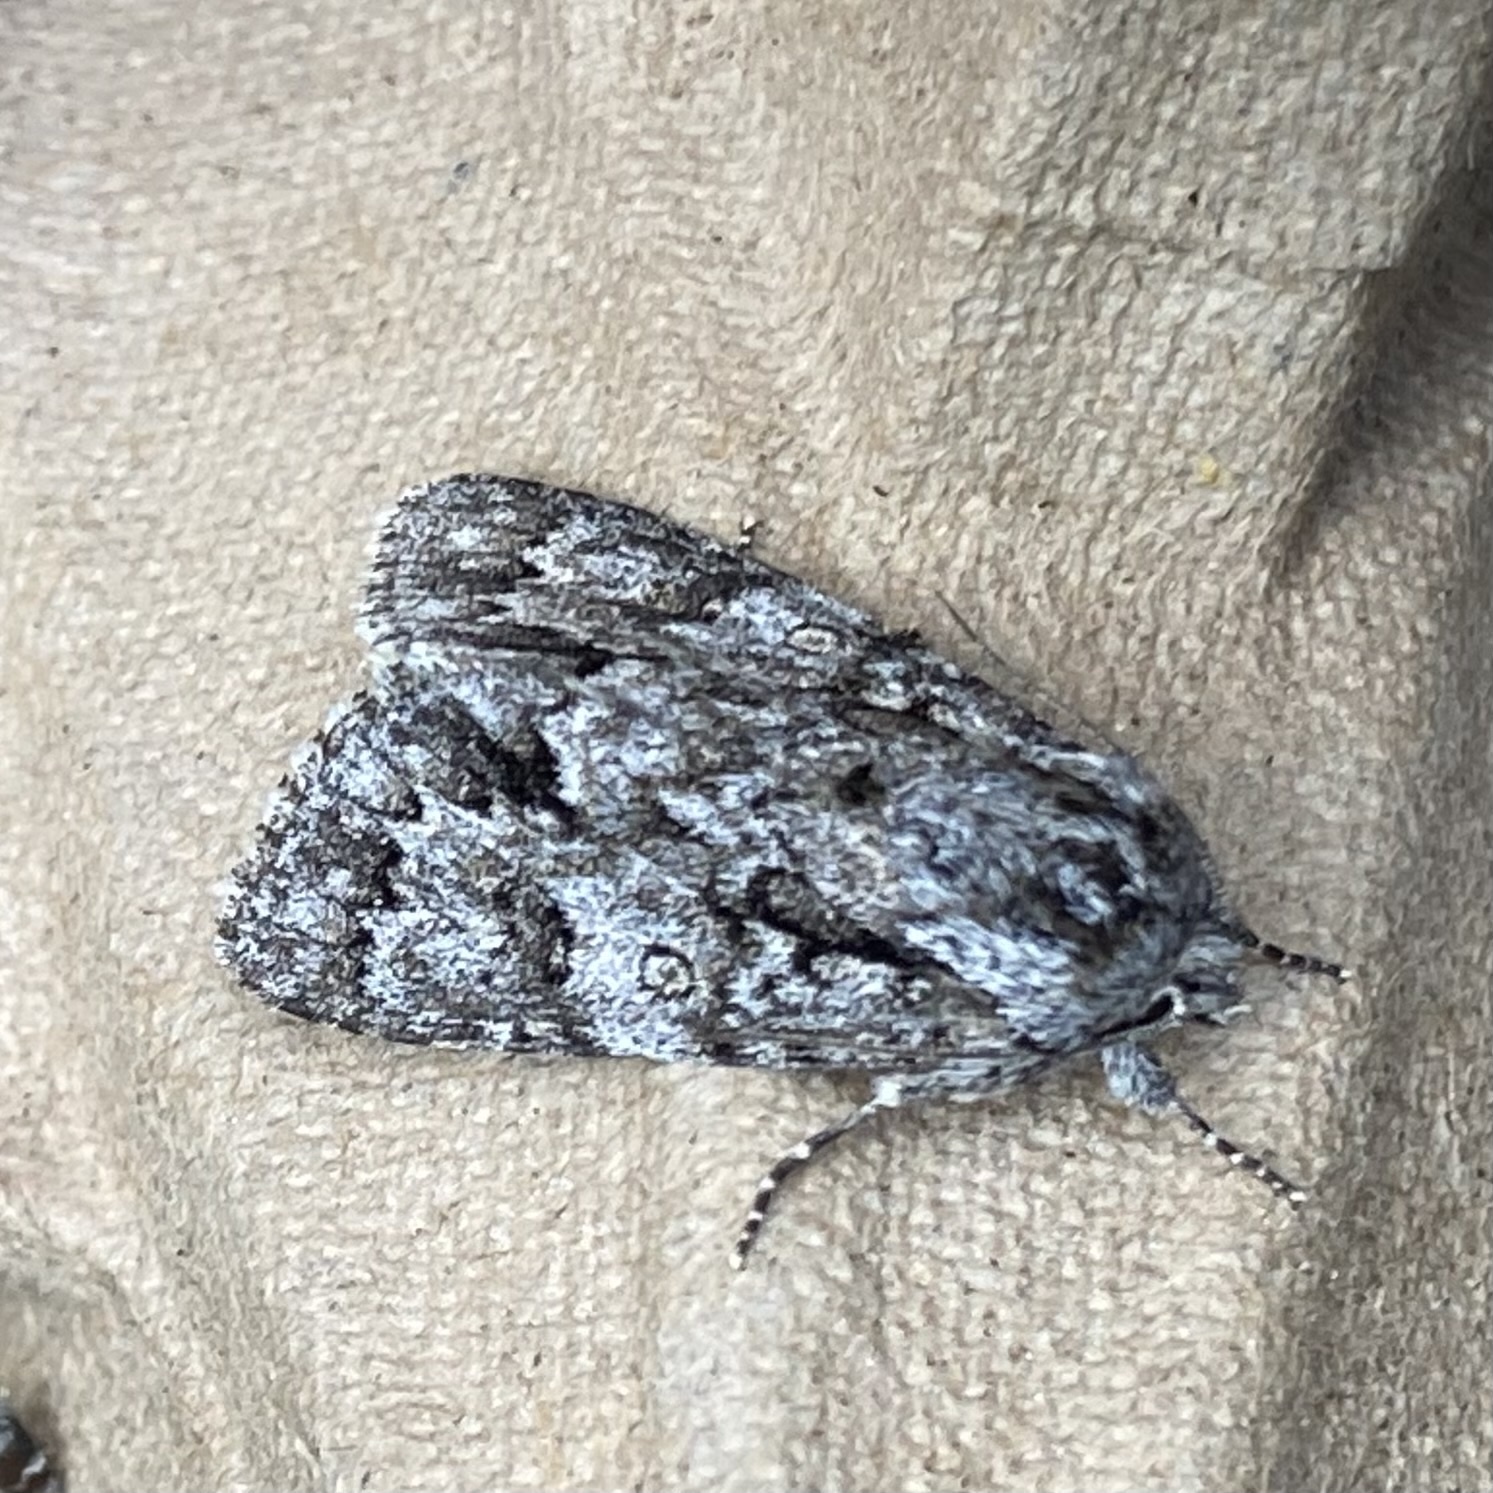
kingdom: Animalia
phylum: Arthropoda
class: Insecta
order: Lepidoptera
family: Noctuidae
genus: Acronicta
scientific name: Acronicta auricoma
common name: Scarce dagger
